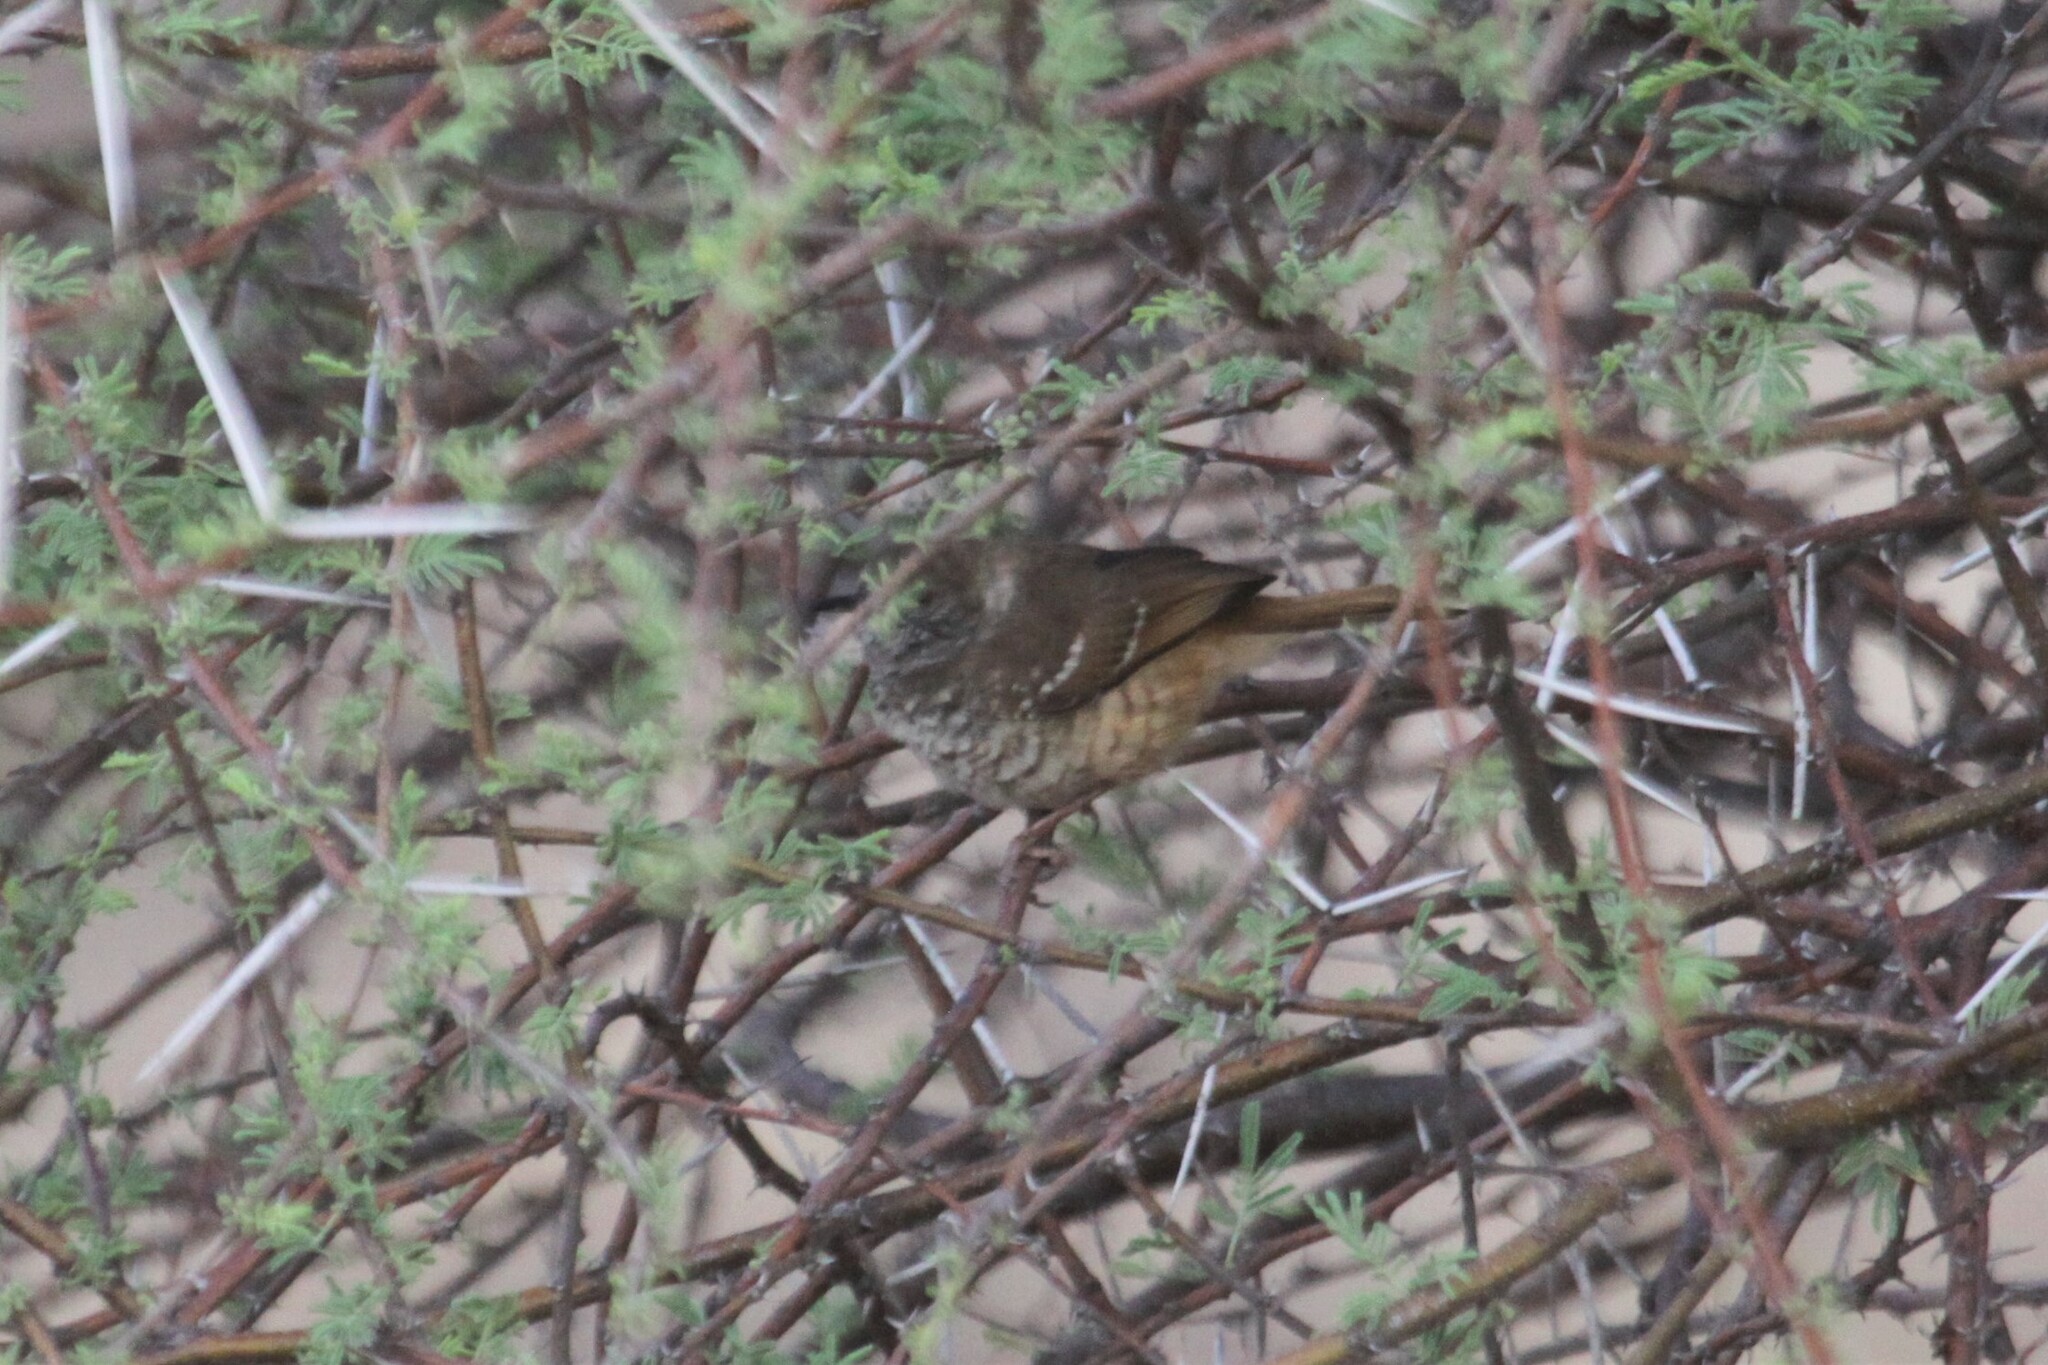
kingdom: Animalia
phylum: Chordata
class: Aves
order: Passeriformes
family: Cisticolidae
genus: Calamonastes
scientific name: Calamonastes fasciolatus
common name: Barred wren-warbler
